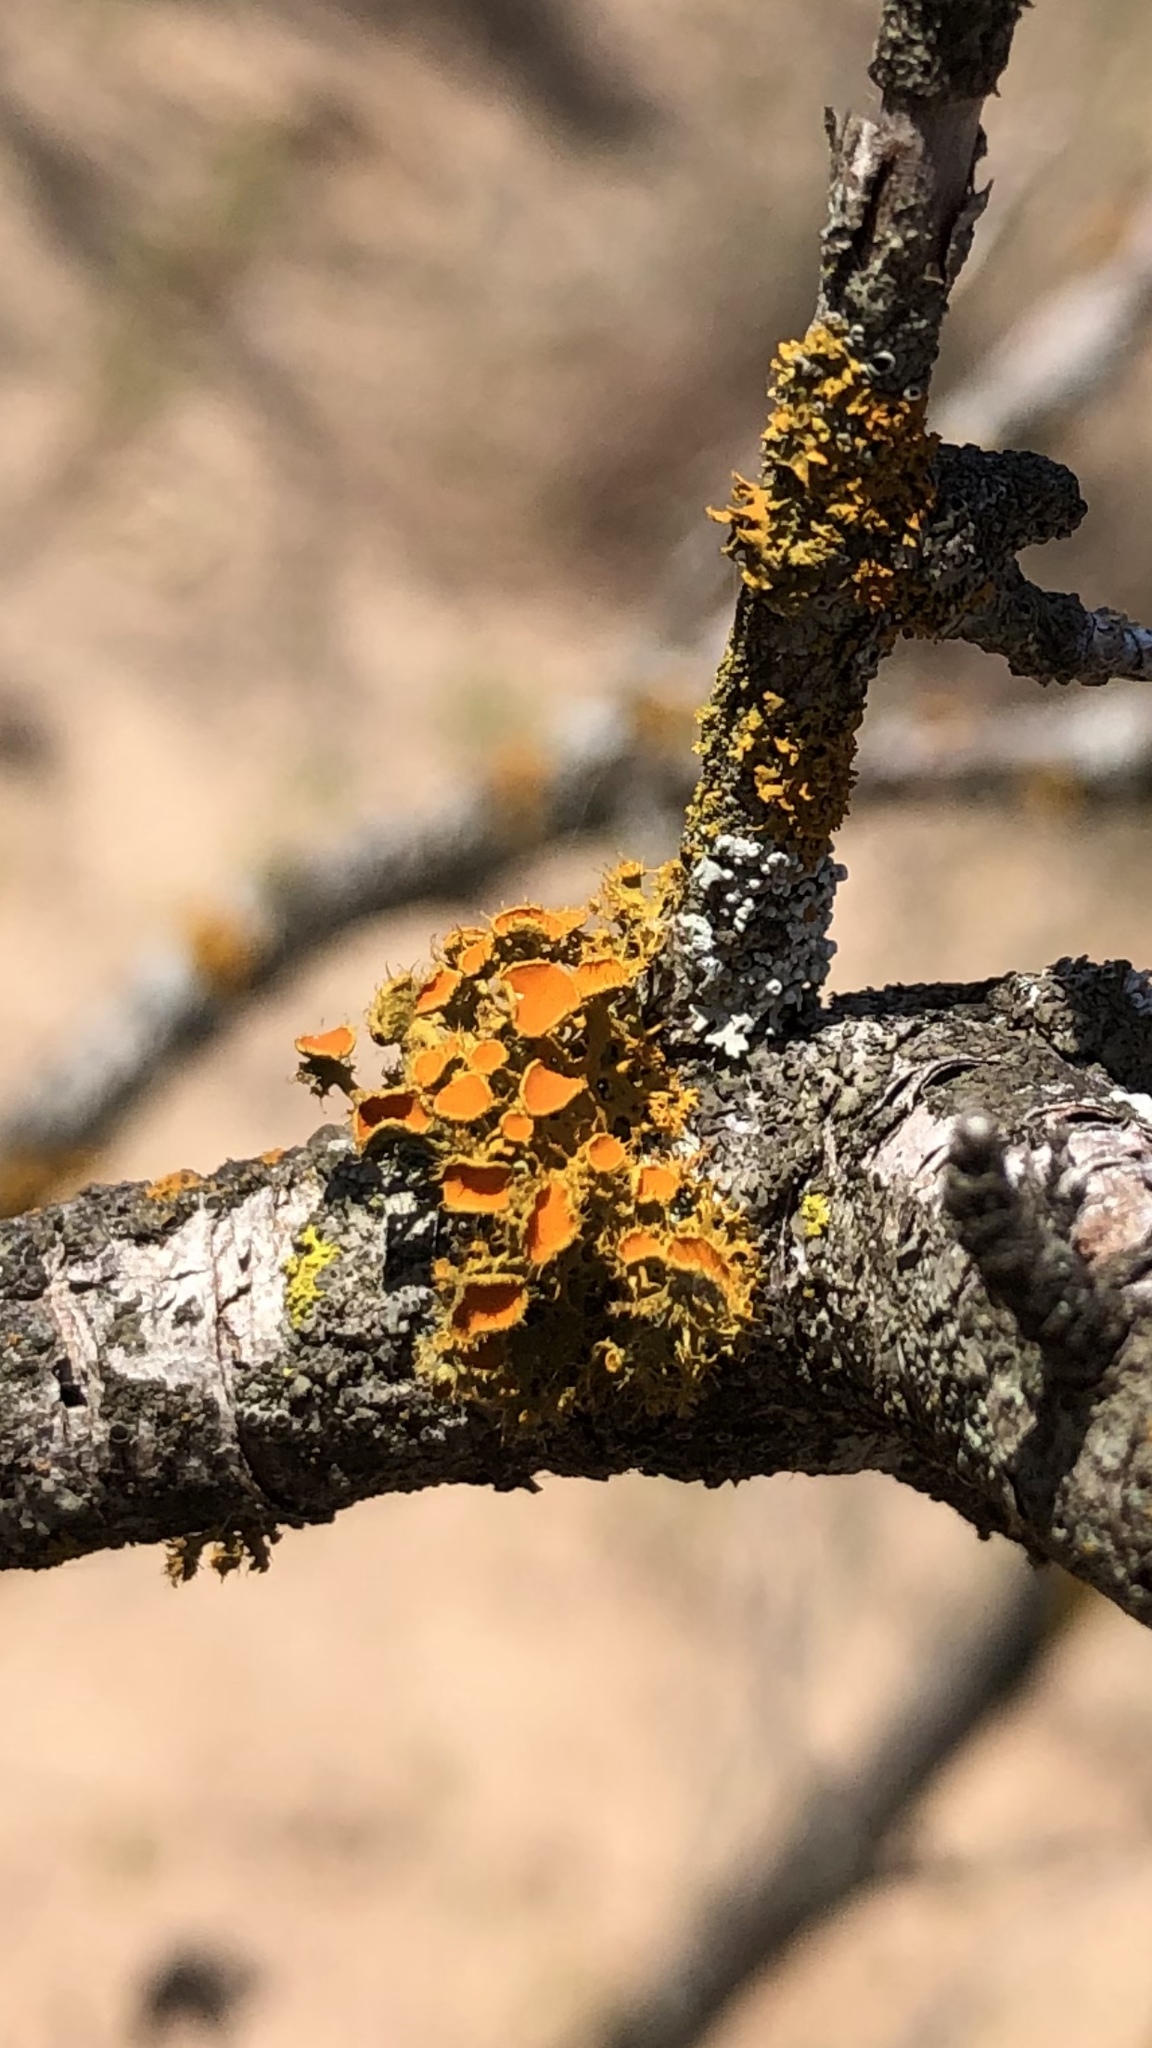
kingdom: Fungi
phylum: Ascomycota
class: Lecanoromycetes
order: Teloschistales
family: Teloschistaceae
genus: Niorma
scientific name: Niorma chrysophthalma
